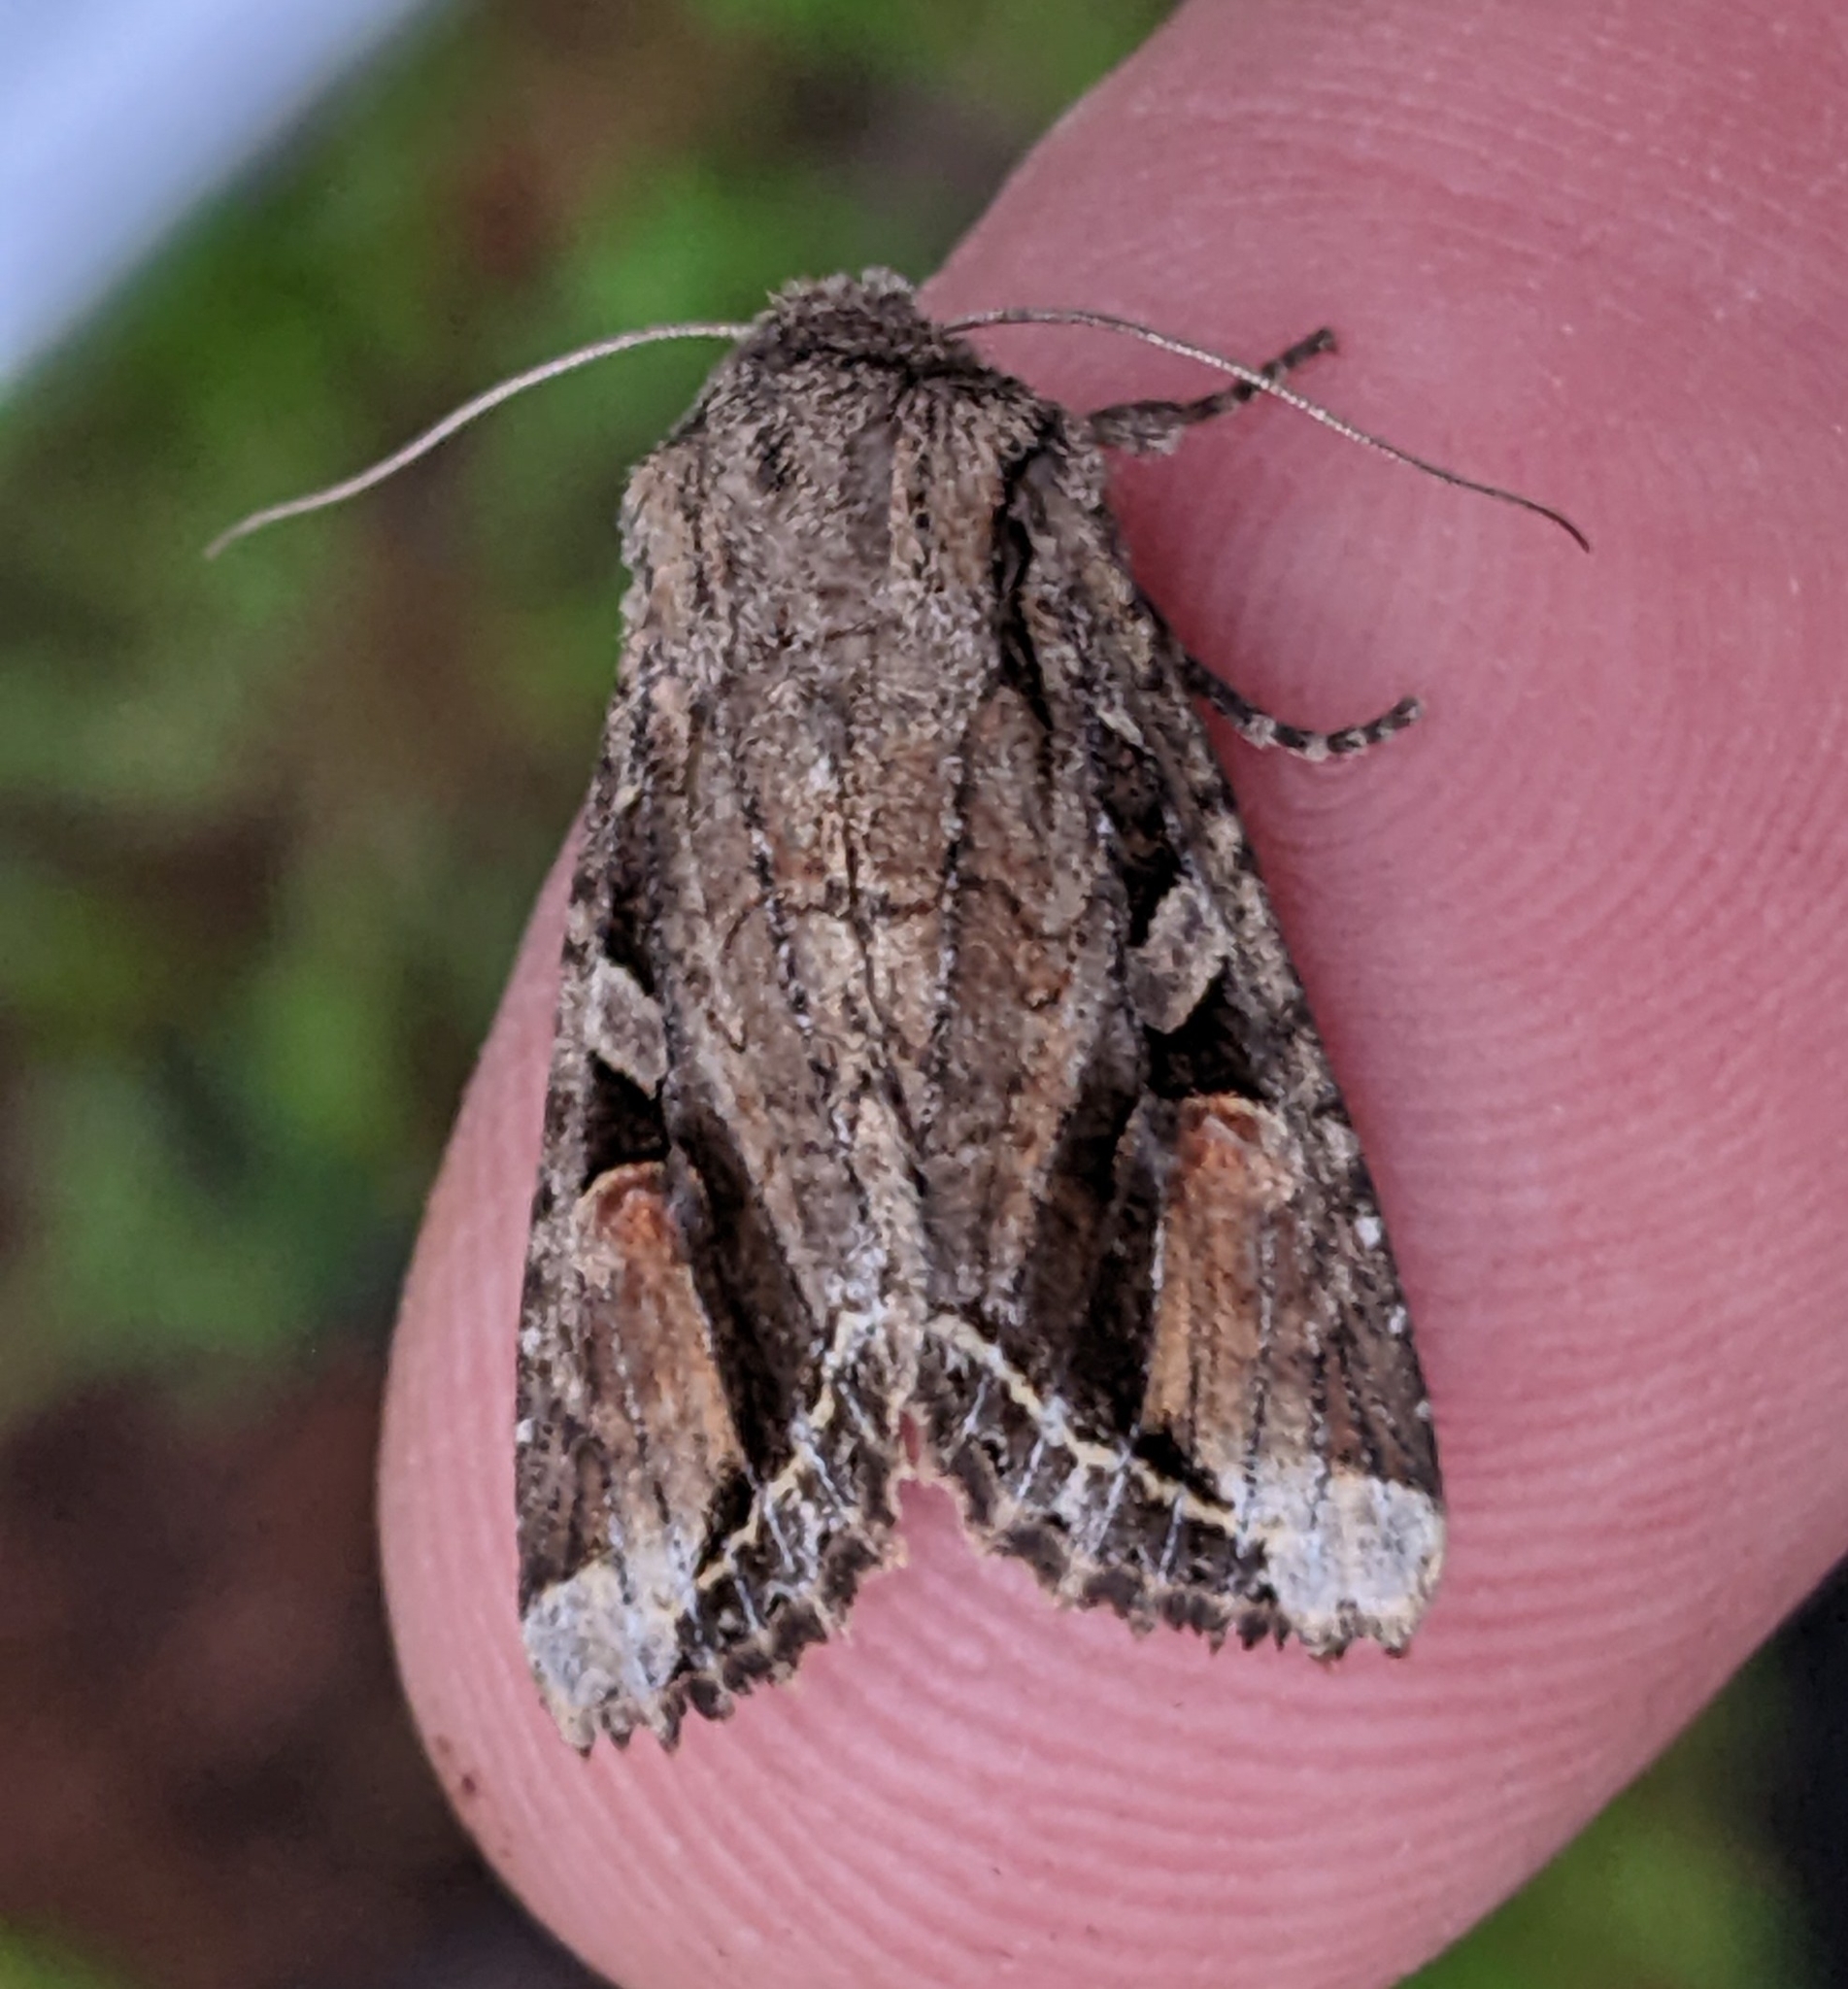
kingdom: Animalia
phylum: Arthropoda
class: Insecta
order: Lepidoptera
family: Noctuidae
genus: Egira
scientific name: Egira rubrica
